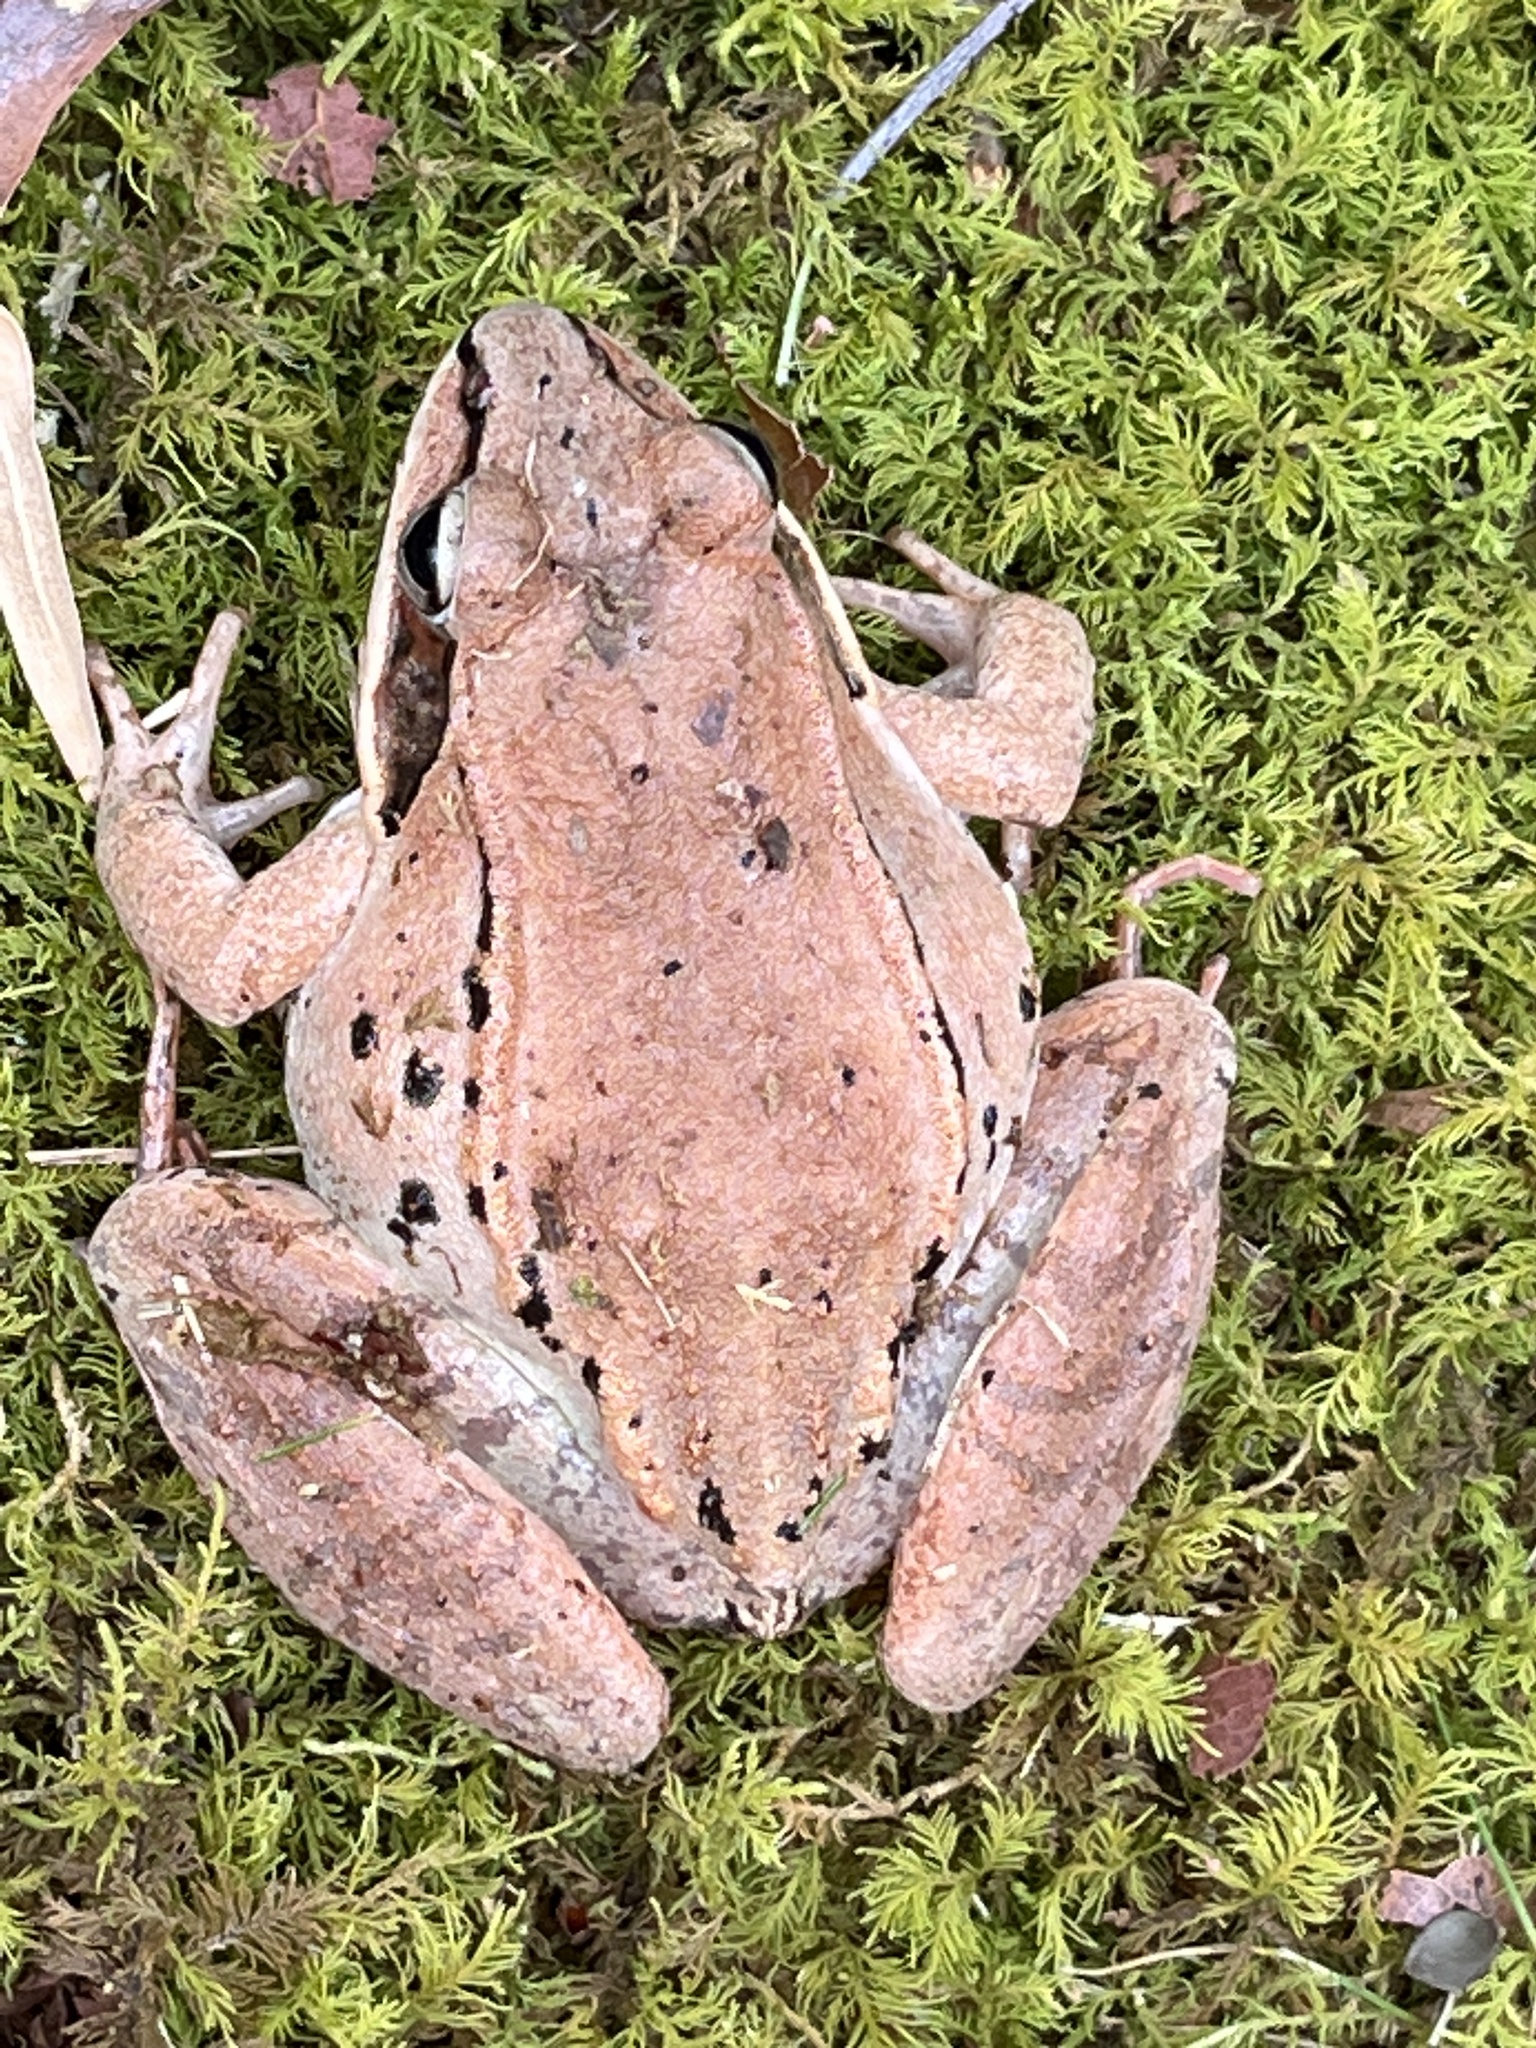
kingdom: Animalia
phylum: Chordata
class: Amphibia
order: Anura
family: Ranidae
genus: Lithobates
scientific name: Lithobates sylvaticus
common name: Wood frog
